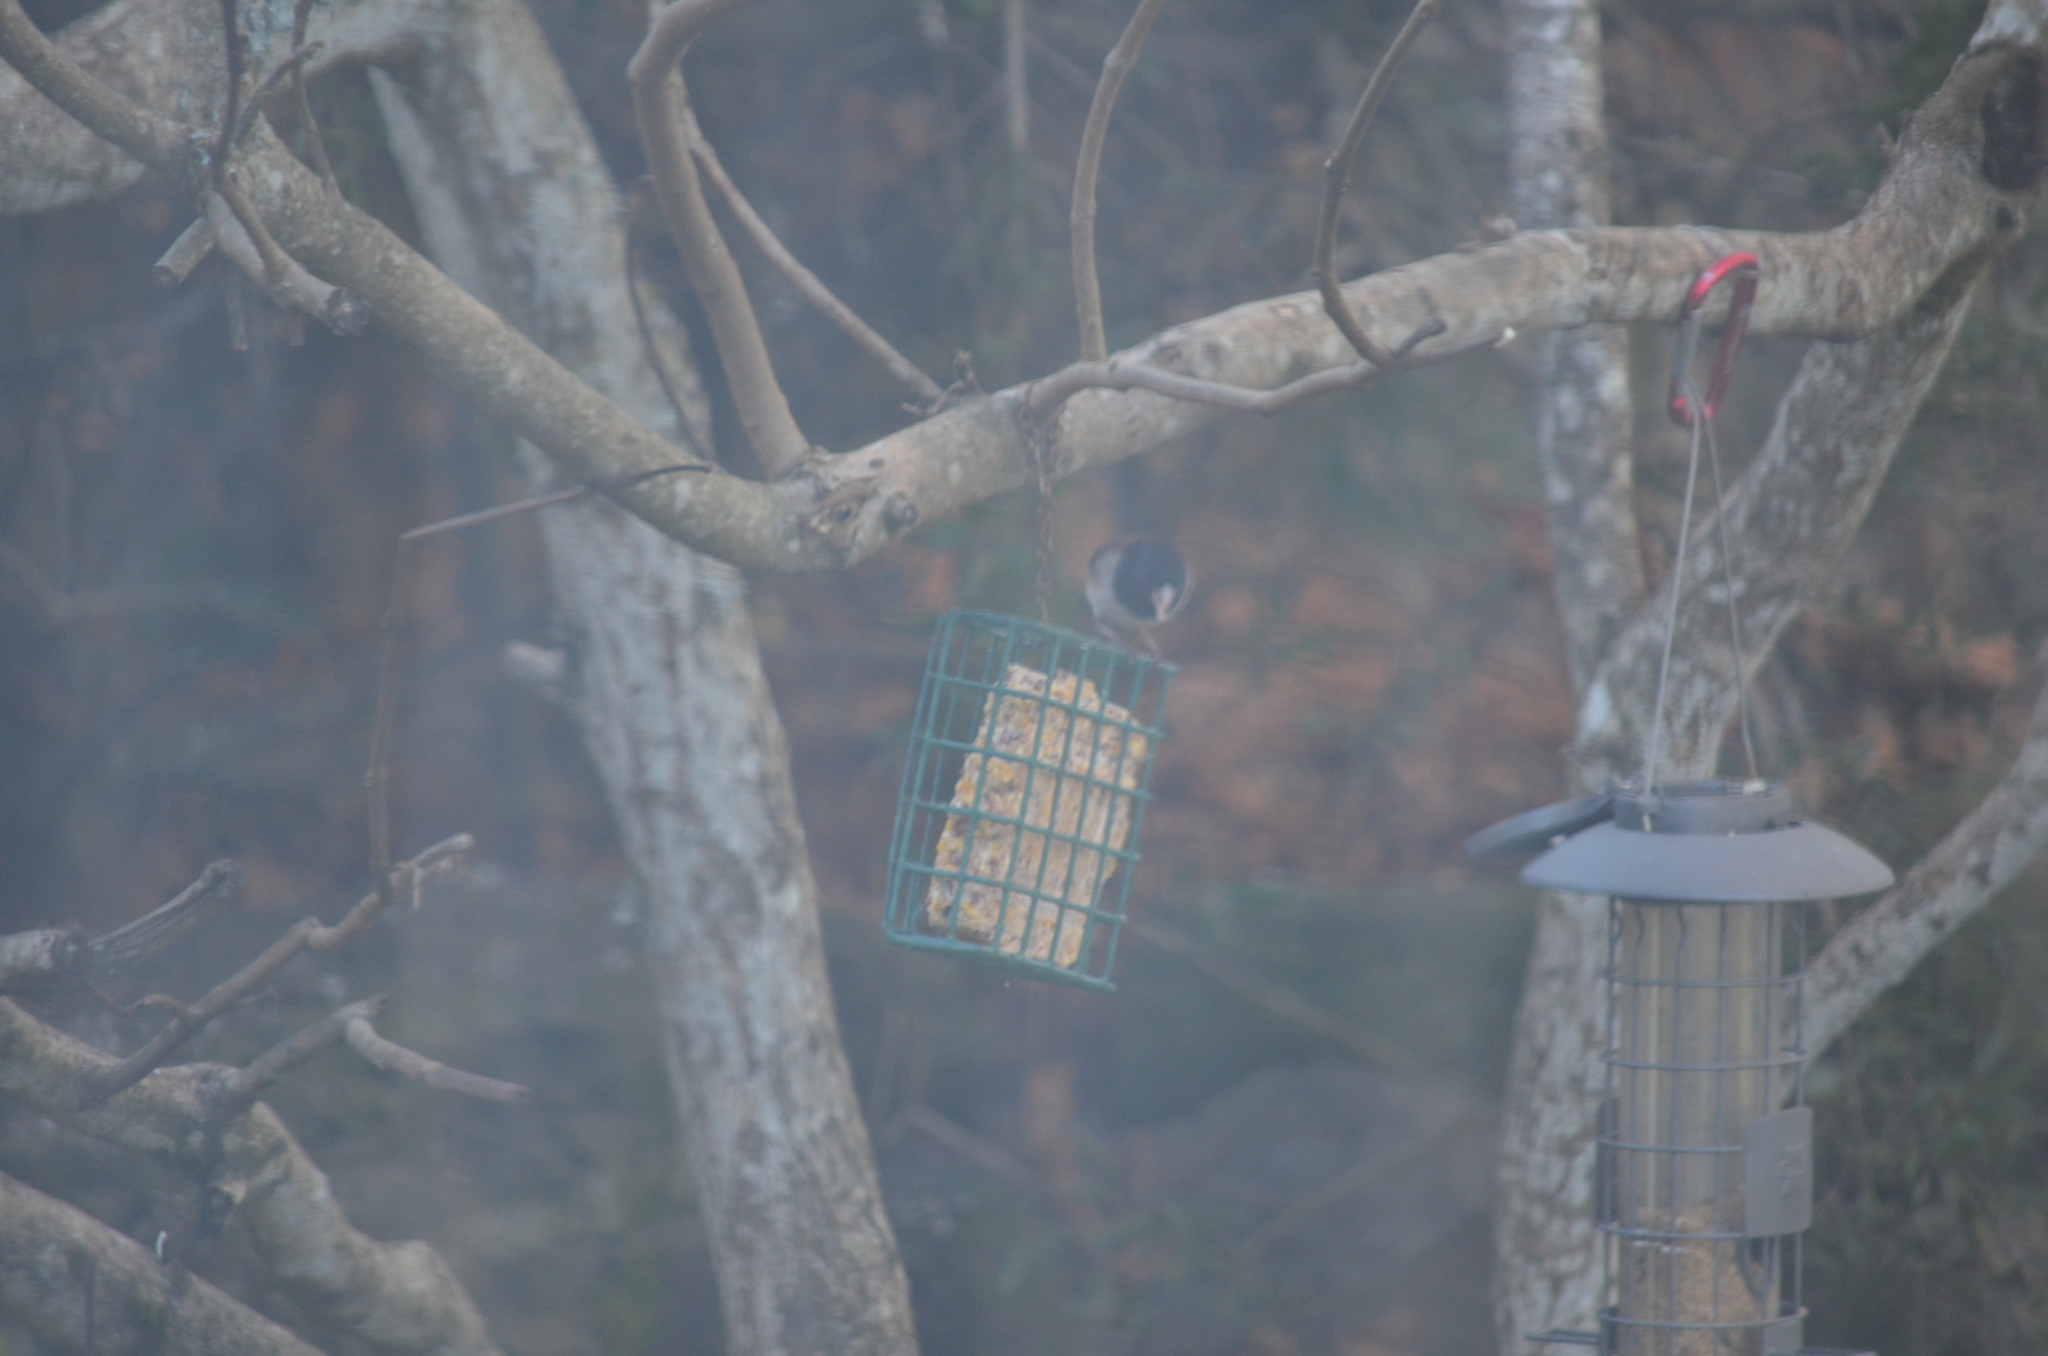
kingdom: Animalia
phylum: Chordata
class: Aves
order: Passeriformes
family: Passerellidae
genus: Junco
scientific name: Junco hyemalis
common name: Dark-eyed junco
